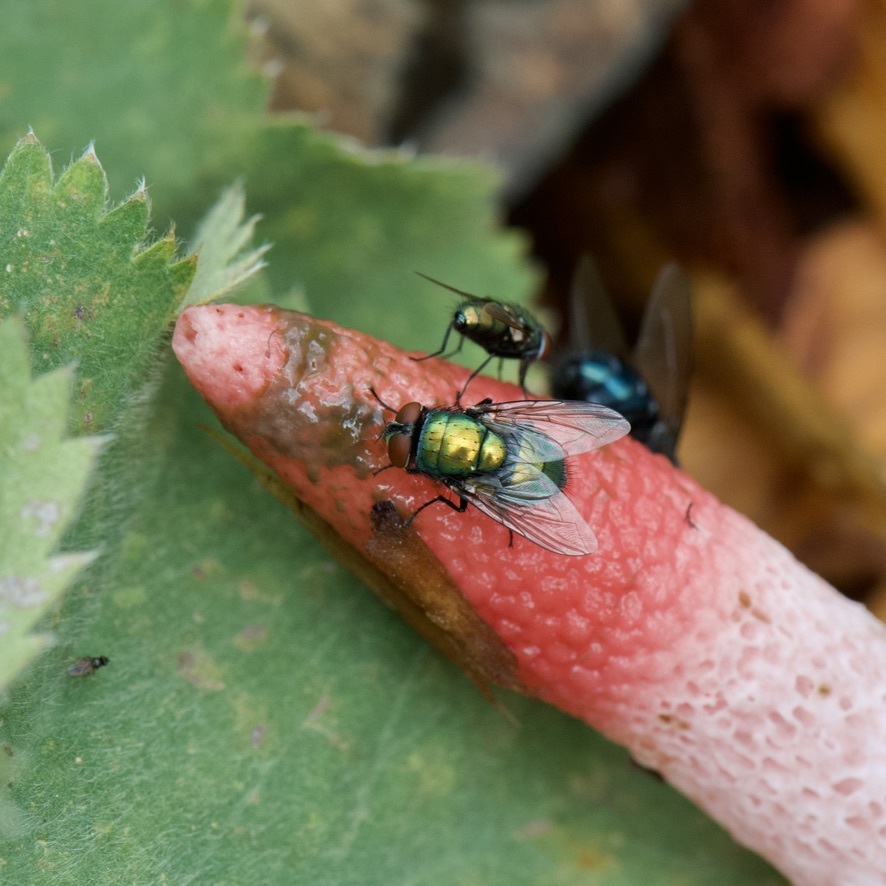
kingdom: Animalia
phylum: Arthropoda
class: Insecta
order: Diptera
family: Calliphoridae
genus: Lucilia
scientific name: Lucilia sericata
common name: Blow fly
